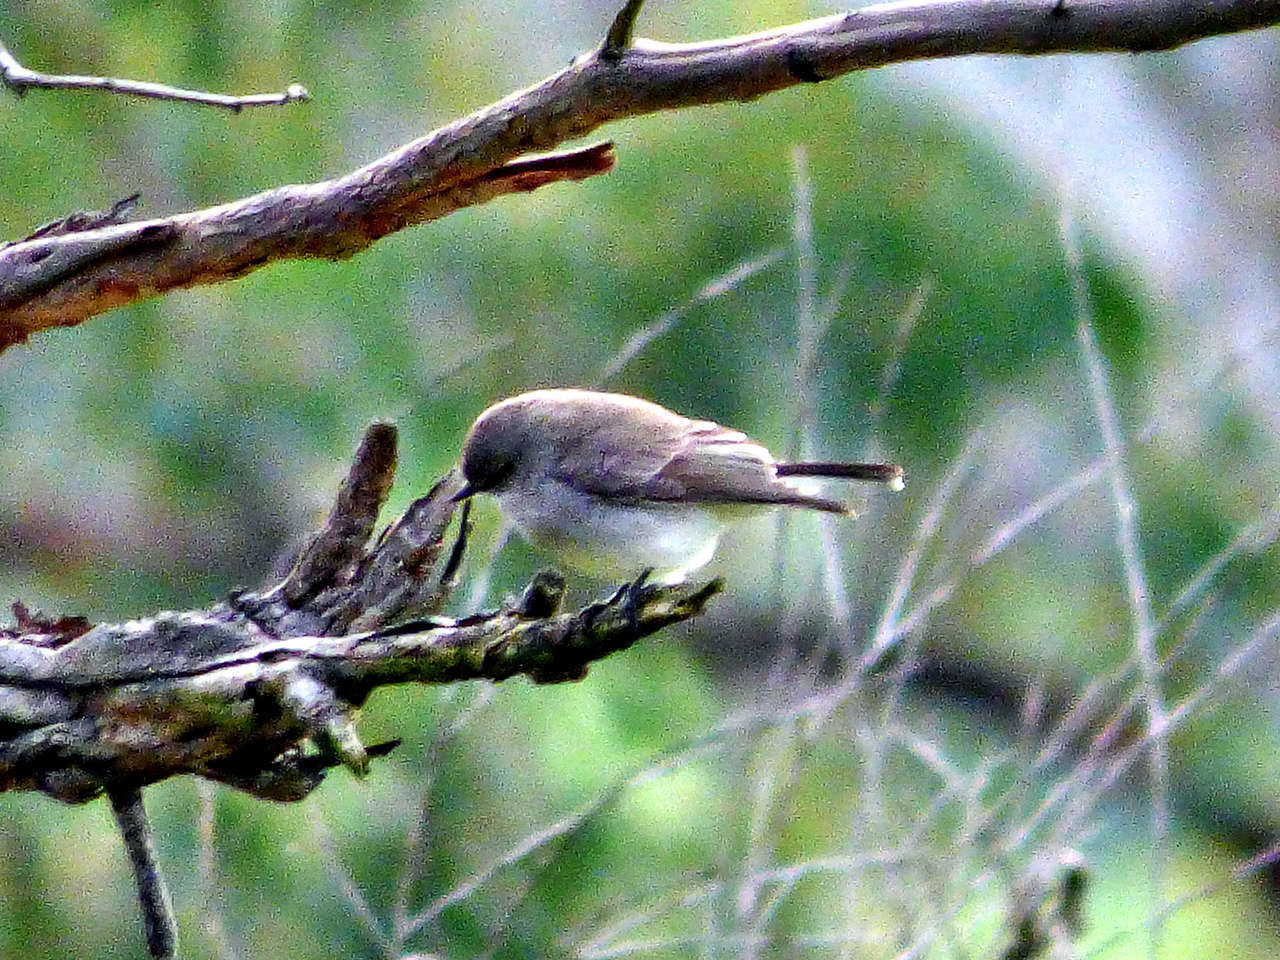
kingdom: Animalia
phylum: Chordata
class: Aves
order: Passeriformes
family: Petroicidae
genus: Microeca
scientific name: Microeca fascinans
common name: Jacky winter
